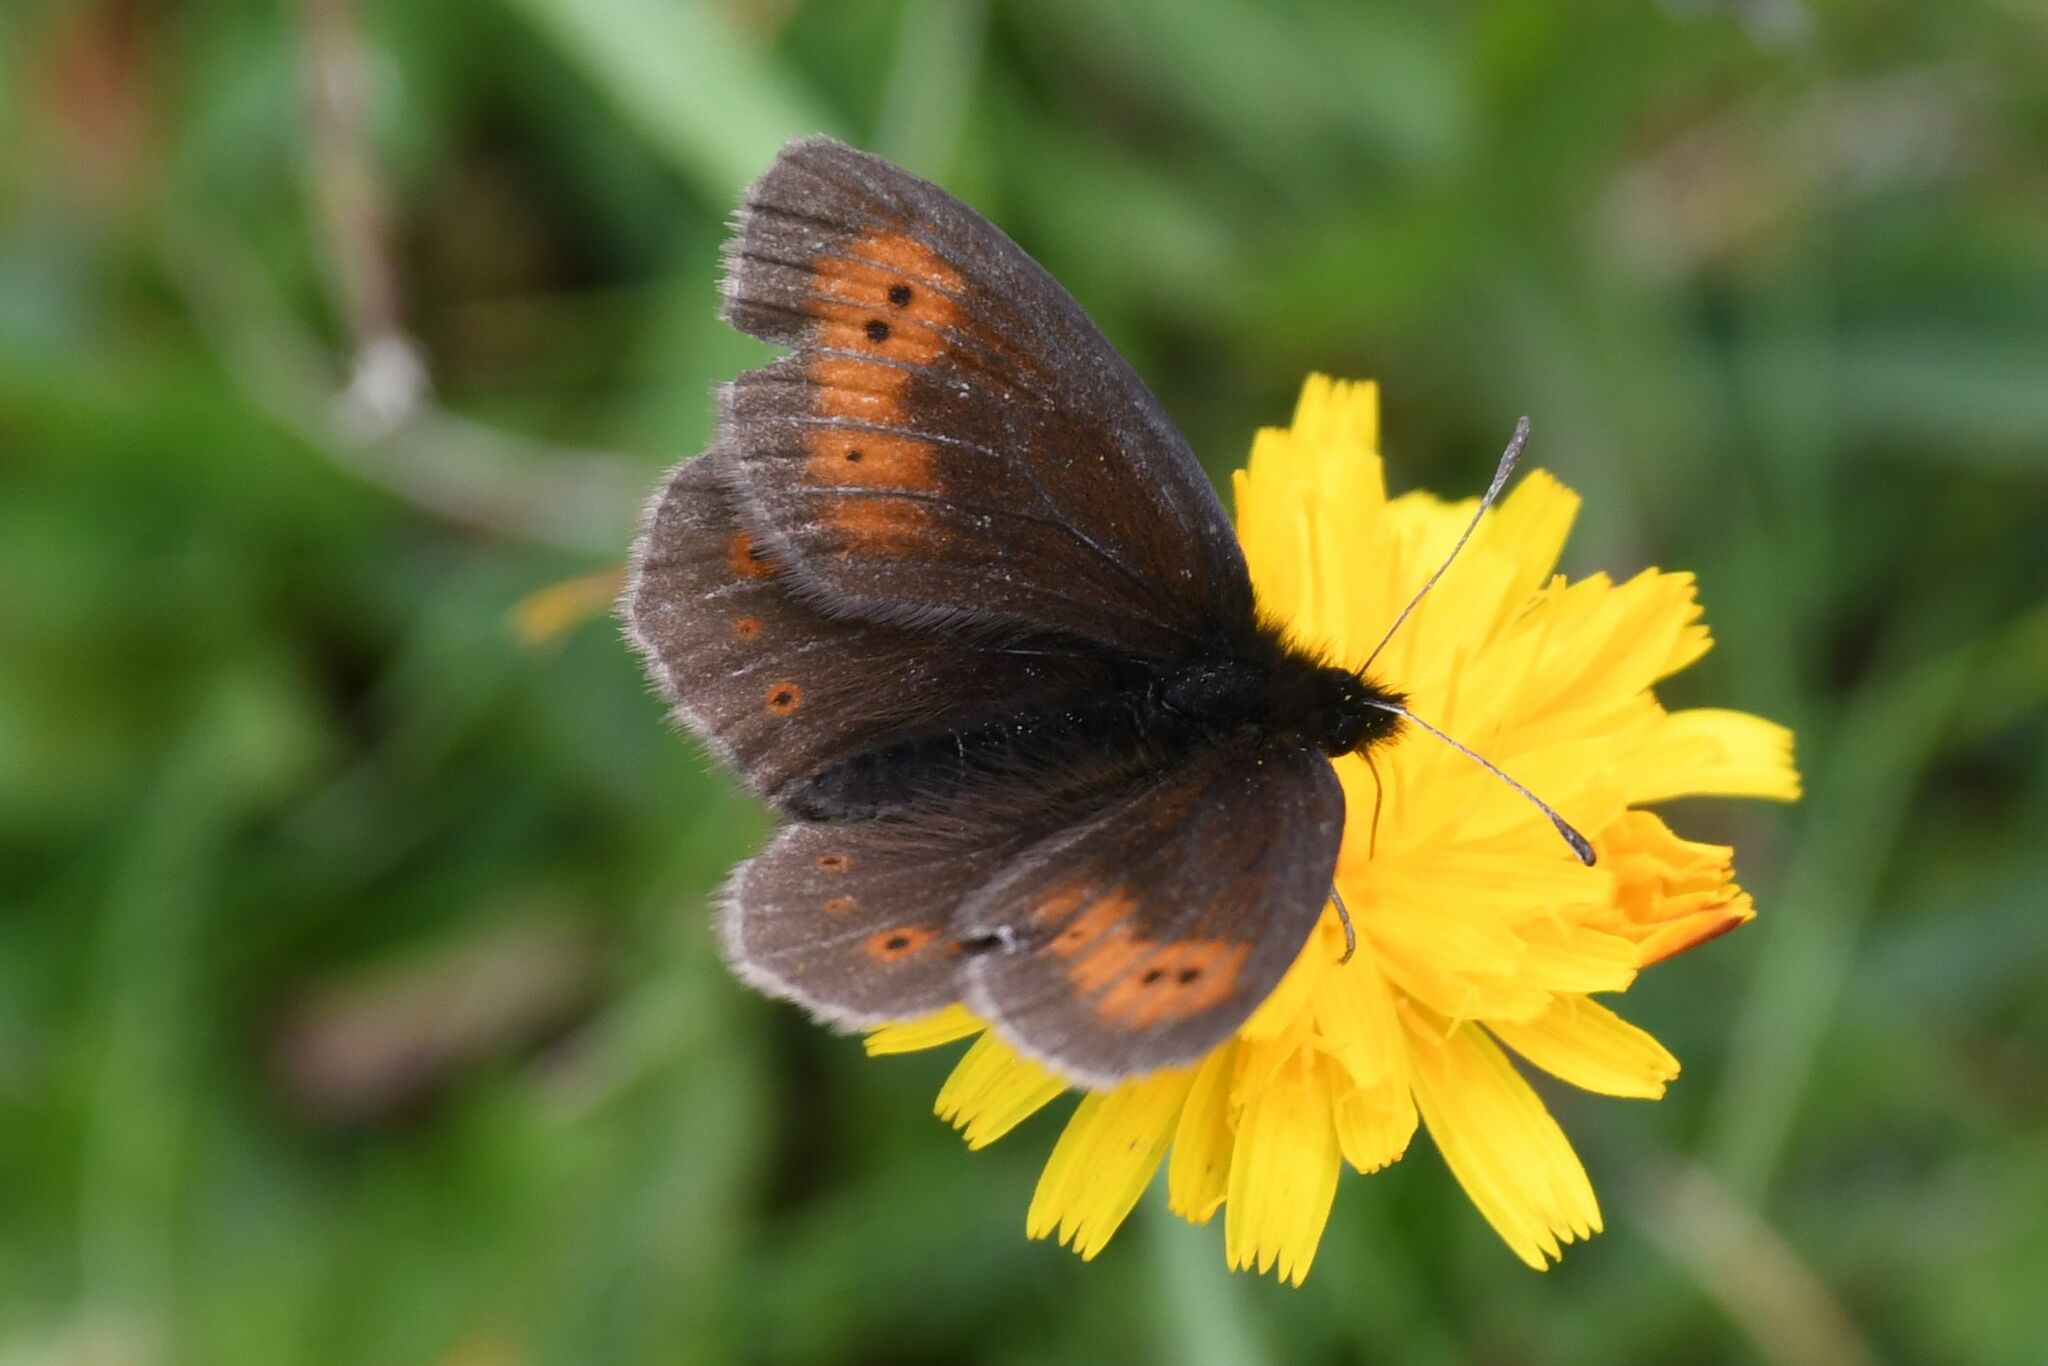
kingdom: Animalia
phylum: Arthropoda
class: Insecta
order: Lepidoptera
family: Nymphalidae
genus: Erebia
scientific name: Erebia epiphron
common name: Mountain ringlet
